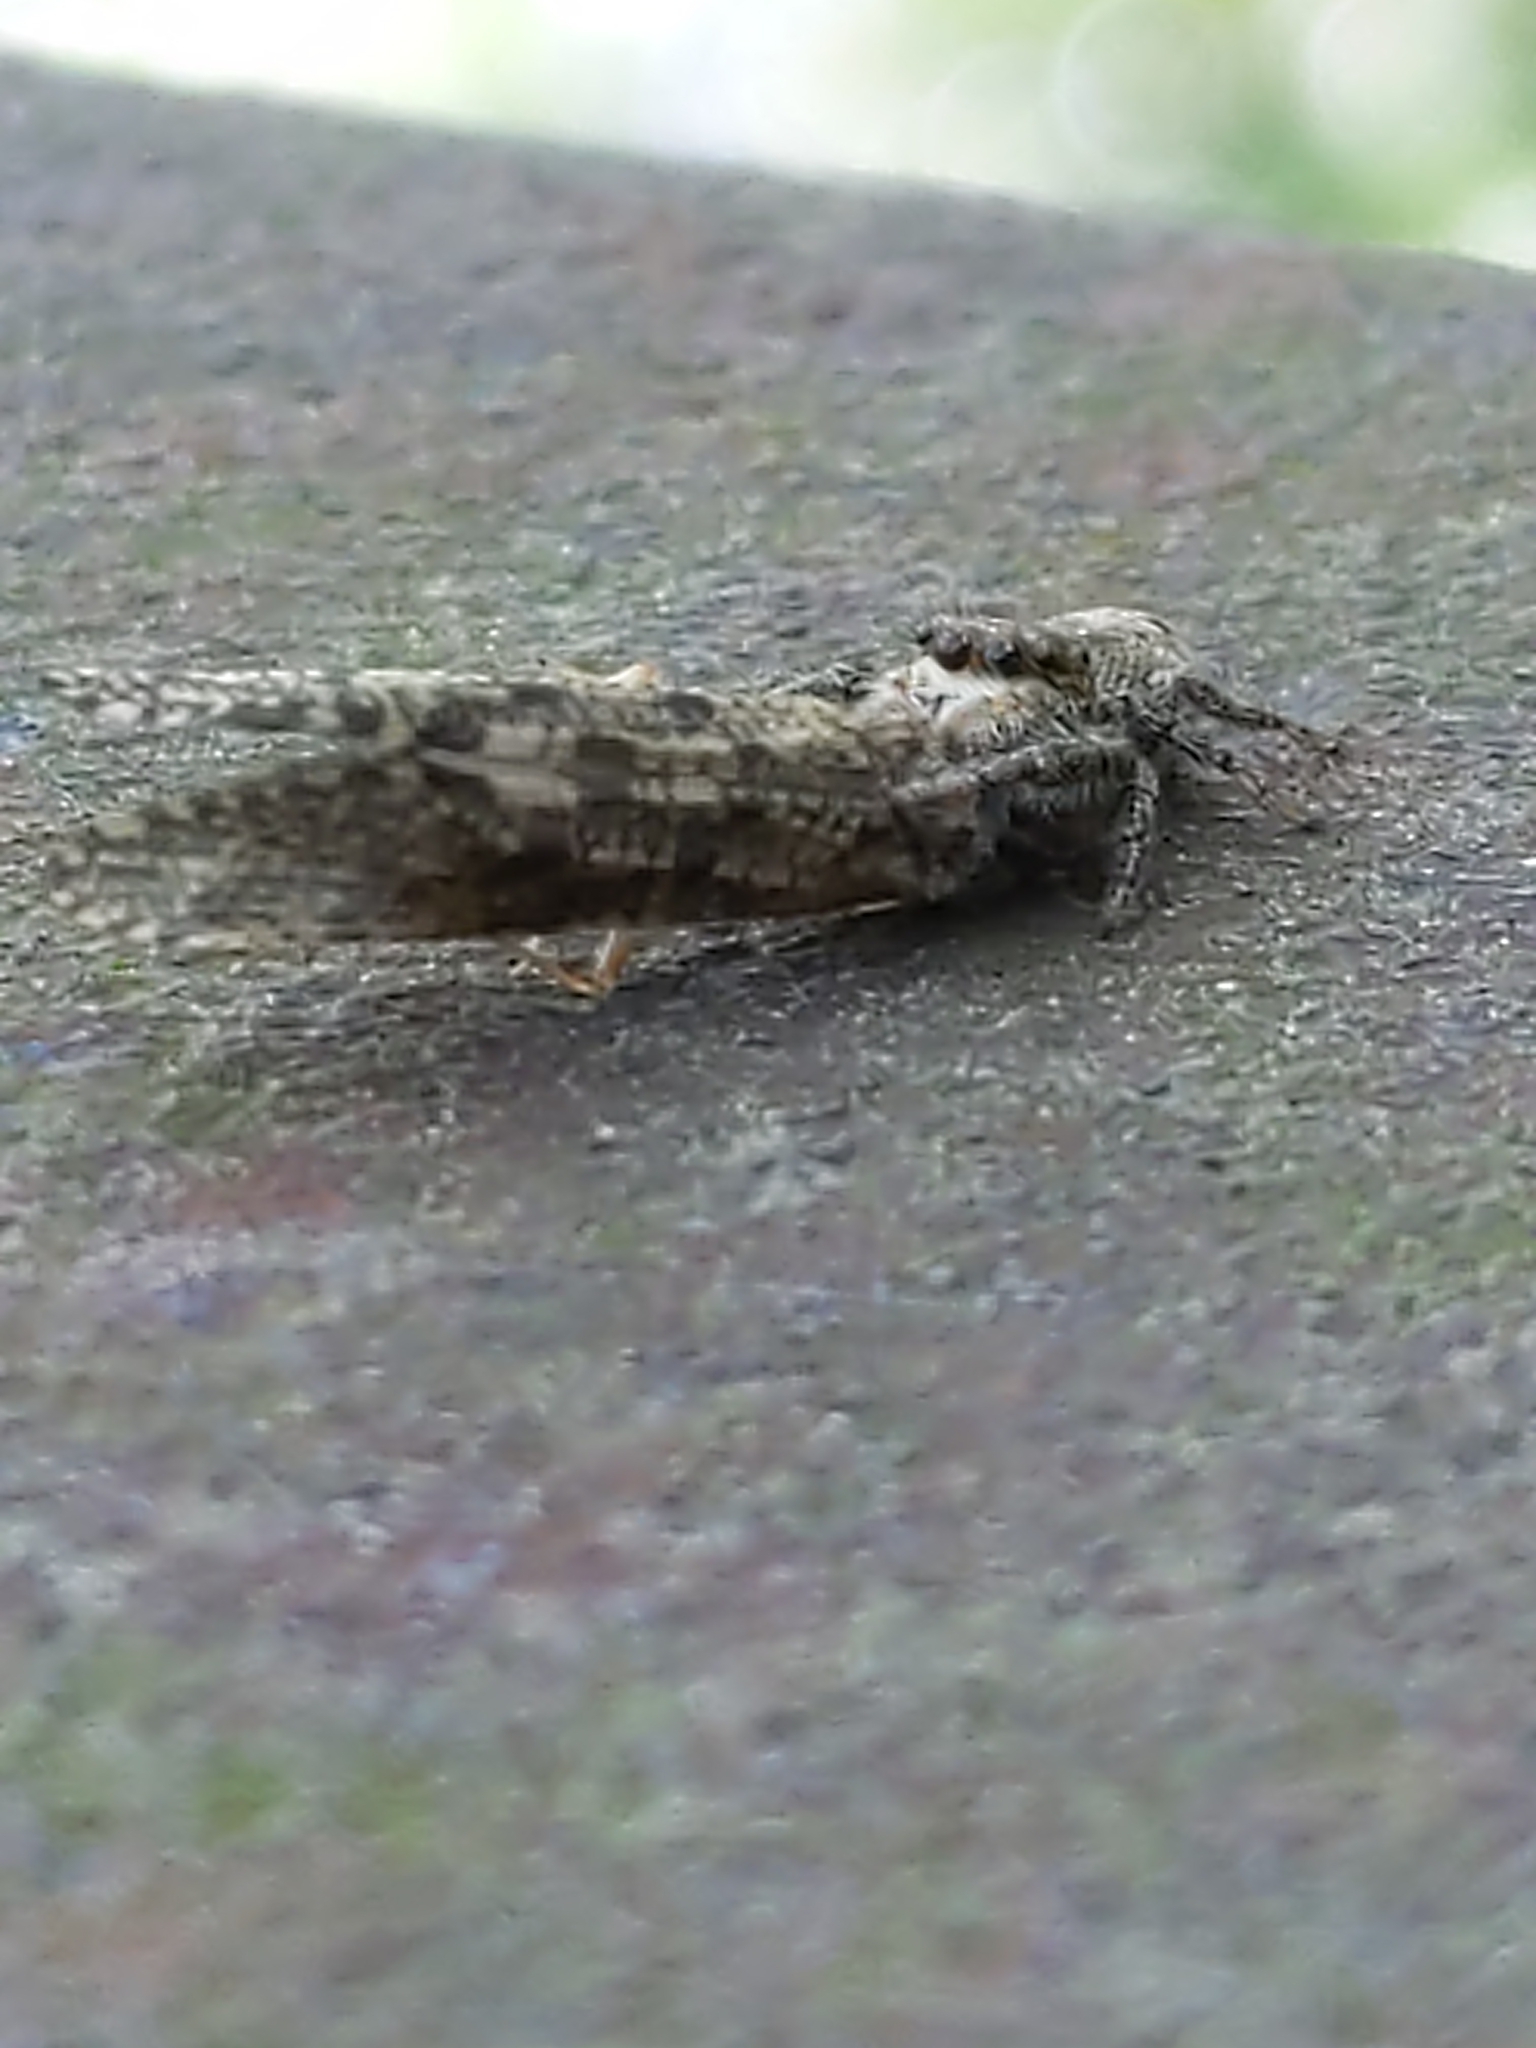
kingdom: Animalia
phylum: Arthropoda
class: Arachnida
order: Araneae
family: Salticidae
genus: Eris
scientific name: Eris
